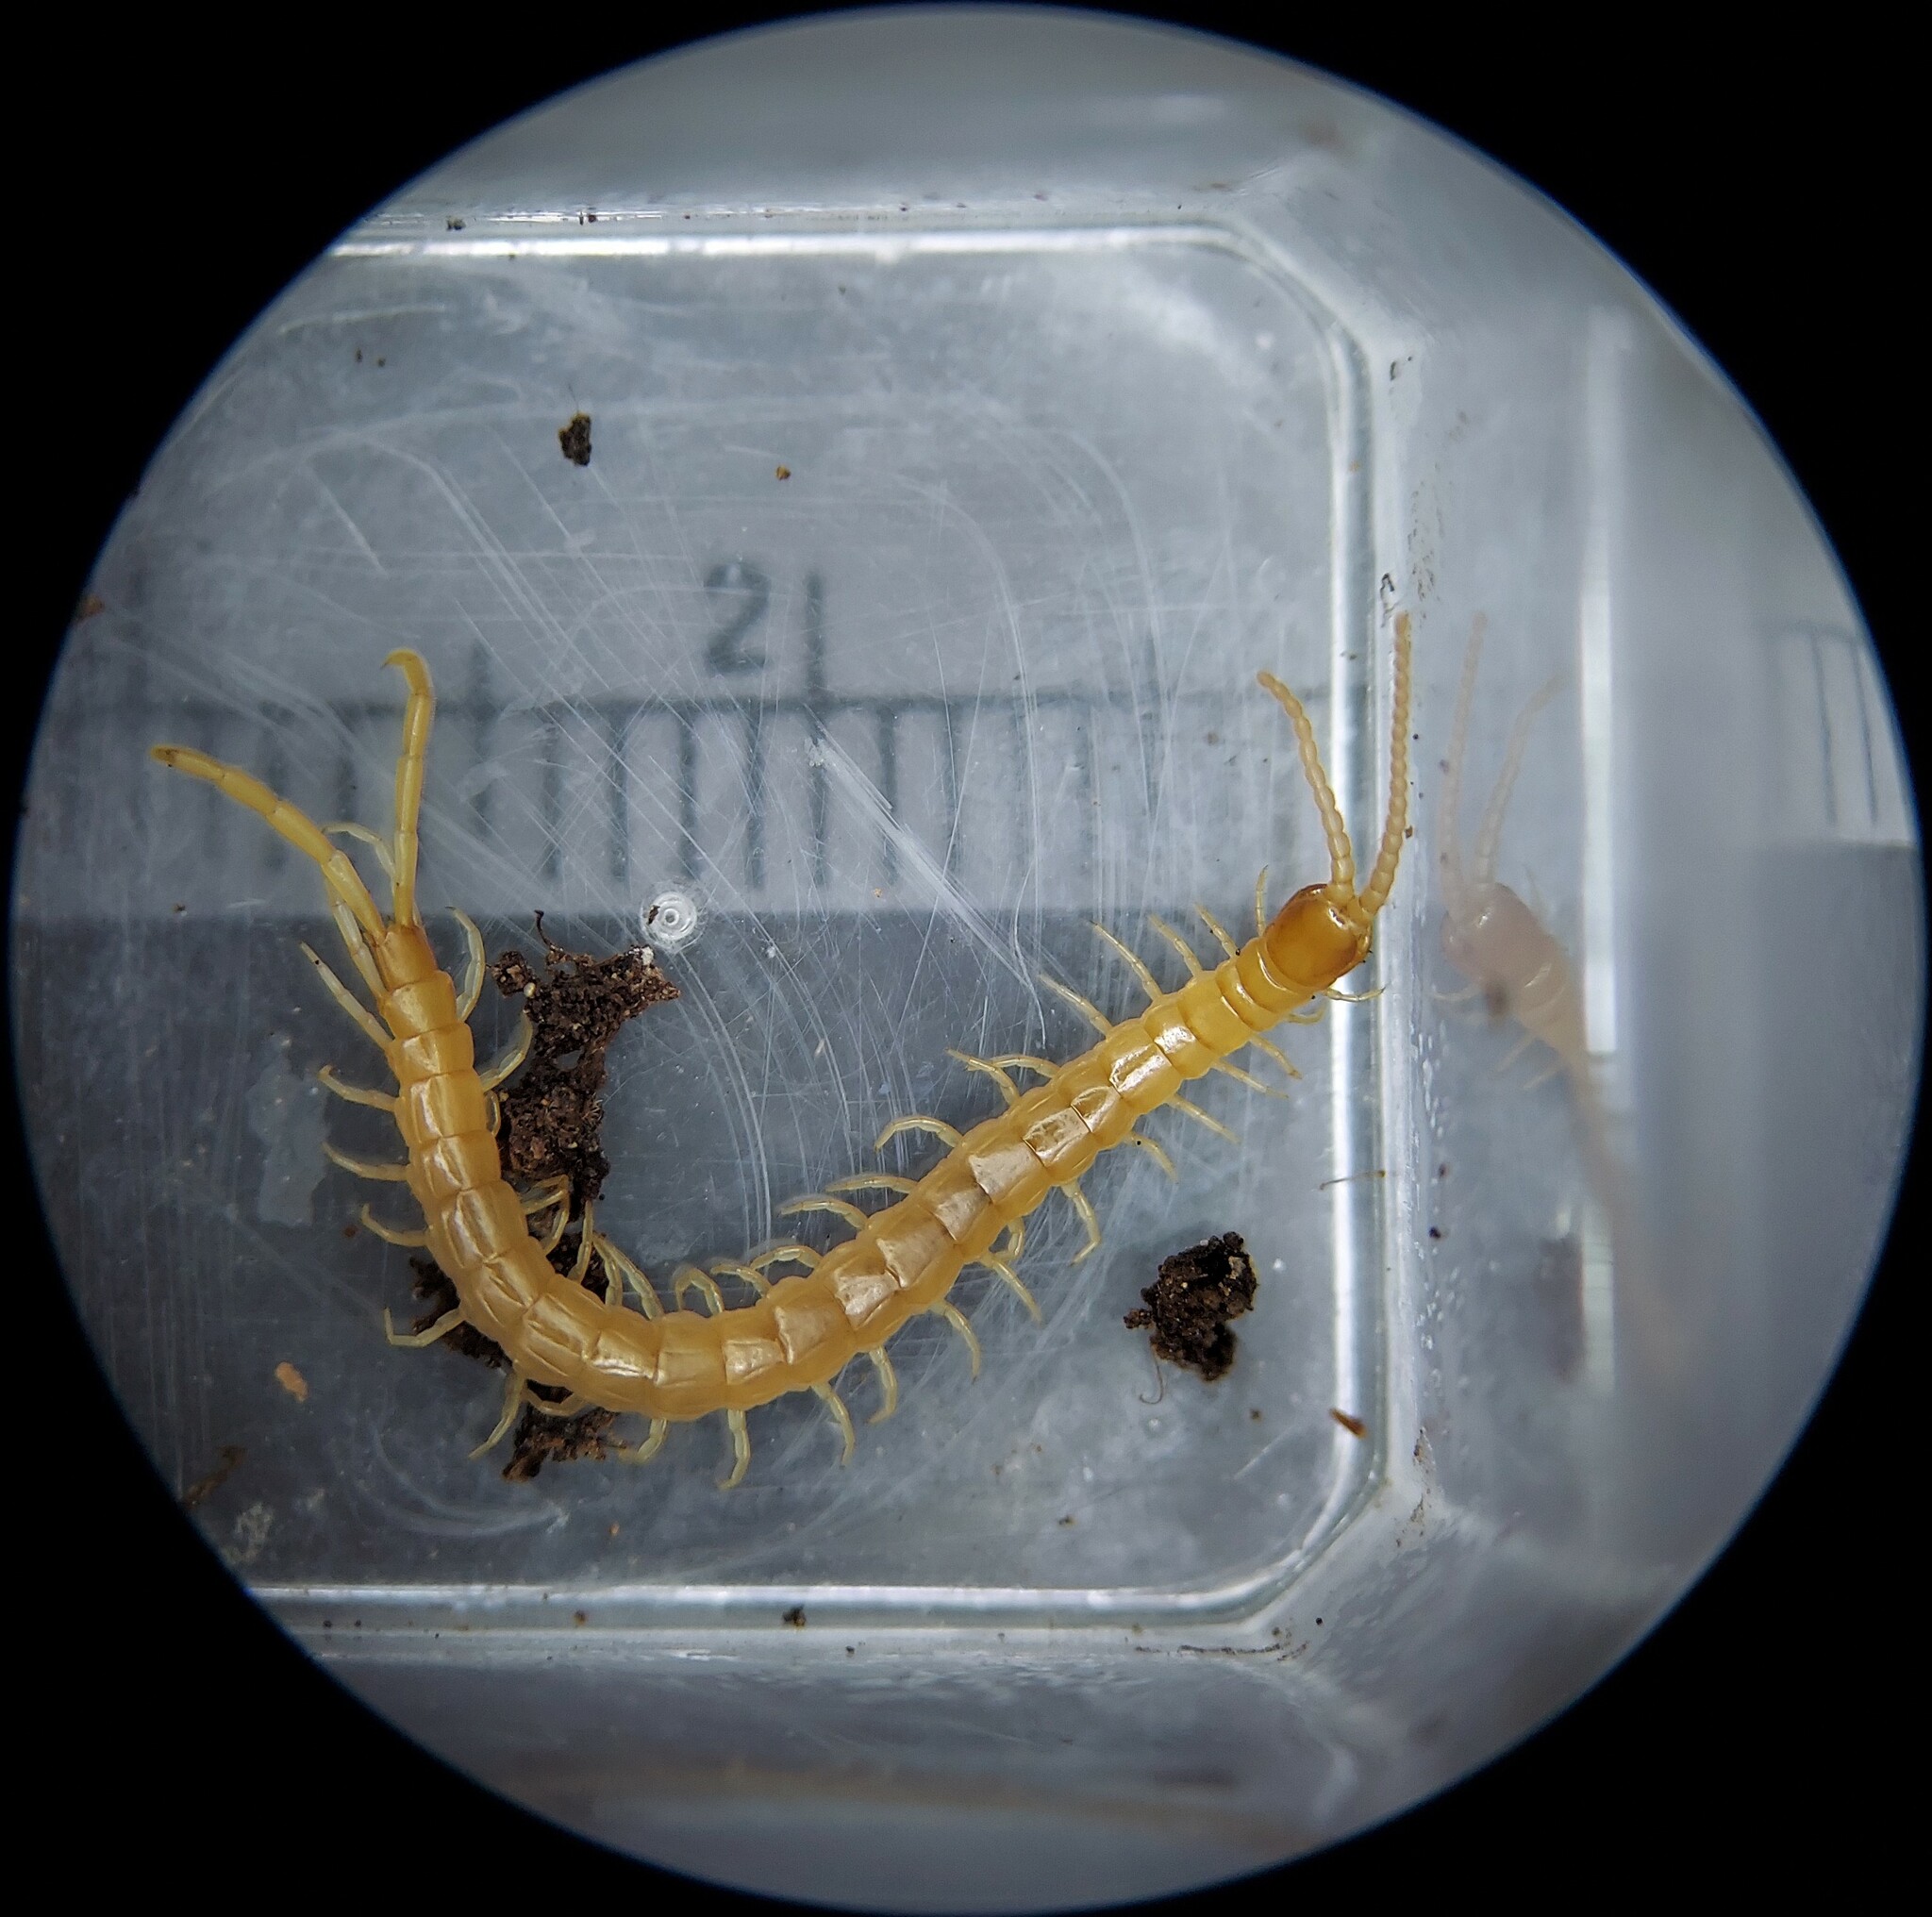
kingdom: Animalia
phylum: Arthropoda
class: Chilopoda
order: Scolopendromorpha
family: Scolopocryptopidae
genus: Scolopocryptops
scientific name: Scolopocryptops peregrinator
